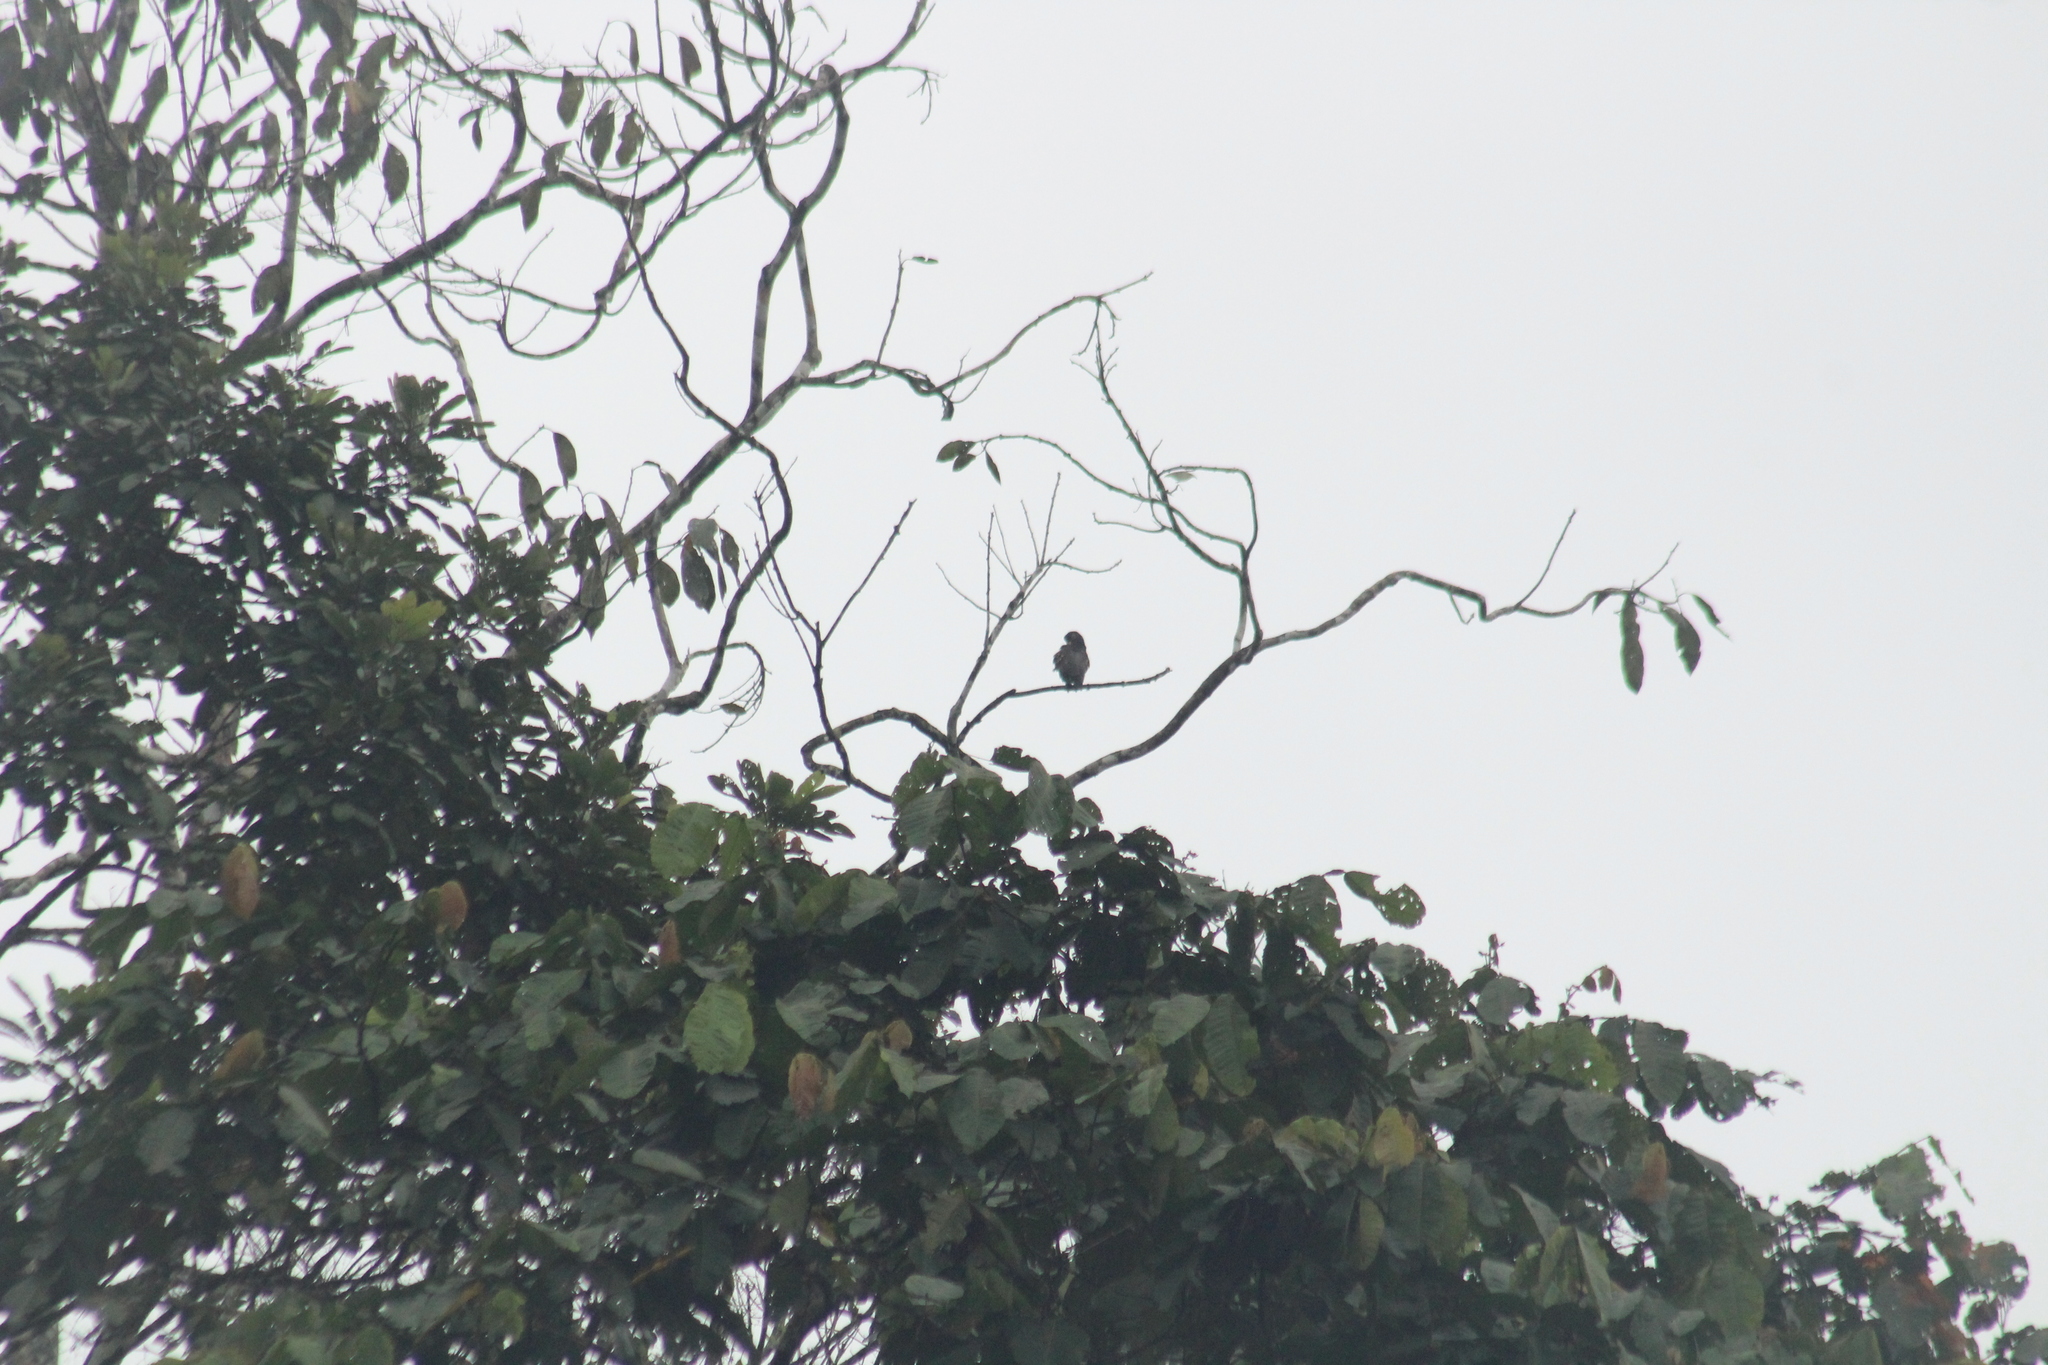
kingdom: Animalia
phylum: Chordata
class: Aves
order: Psittaciformes
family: Psittacidae
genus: Pionus
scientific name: Pionus chalcopterus
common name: Bronze-winged parrot
